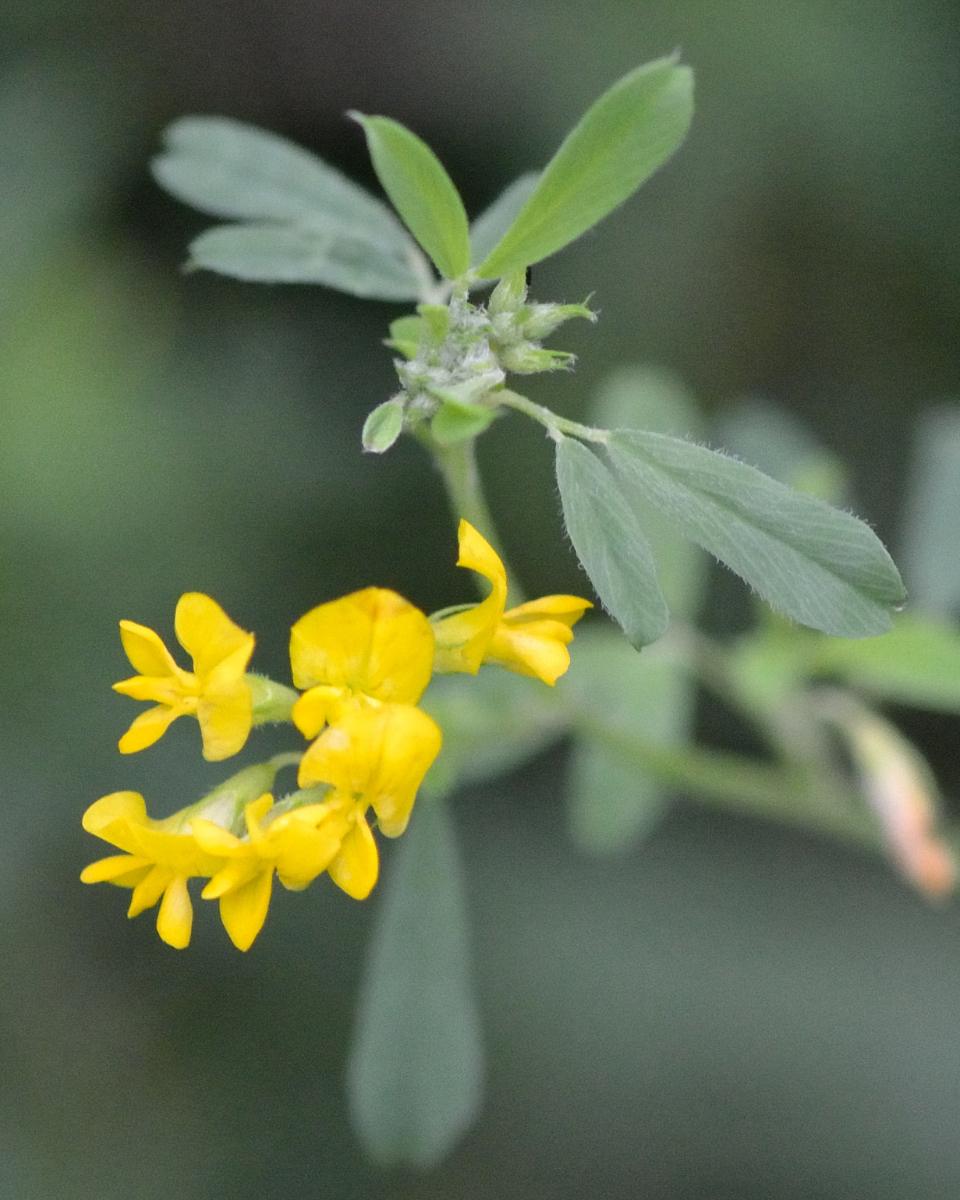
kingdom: Plantae
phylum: Tracheophyta
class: Magnoliopsida
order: Fabales
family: Fabaceae
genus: Medicago
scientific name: Medicago falcata
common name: Sickle medick
